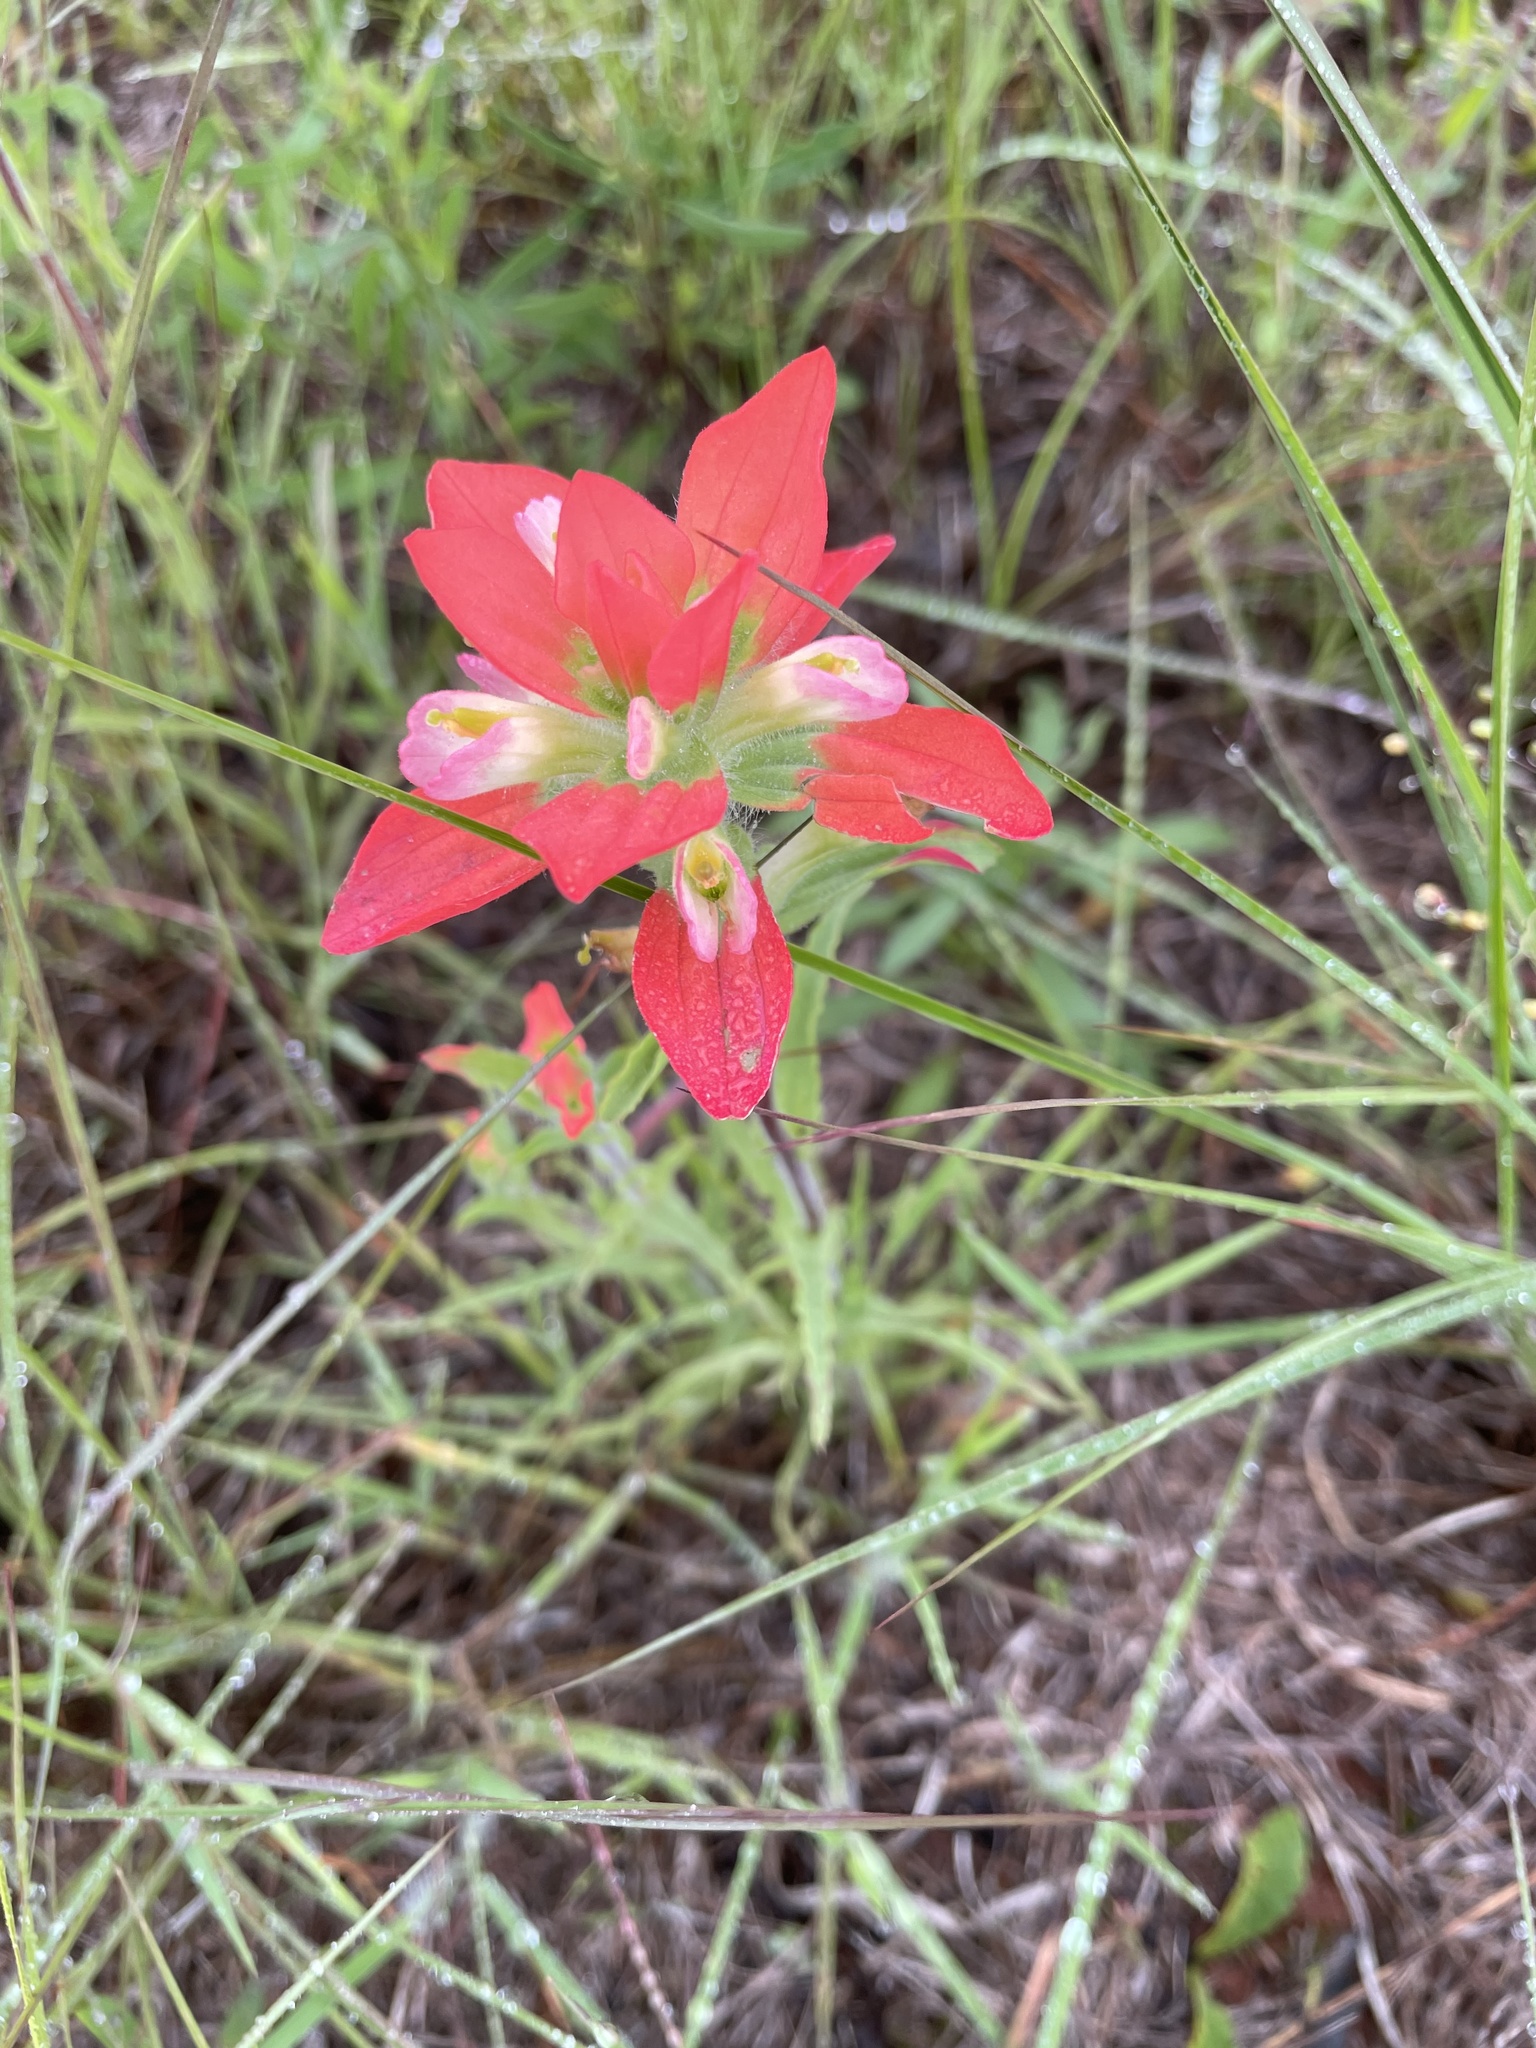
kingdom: Plantae
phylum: Tracheophyta
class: Magnoliopsida
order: Lamiales
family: Orobanchaceae
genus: Castilleja
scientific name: Castilleja indivisa
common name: Texas paintbrush
